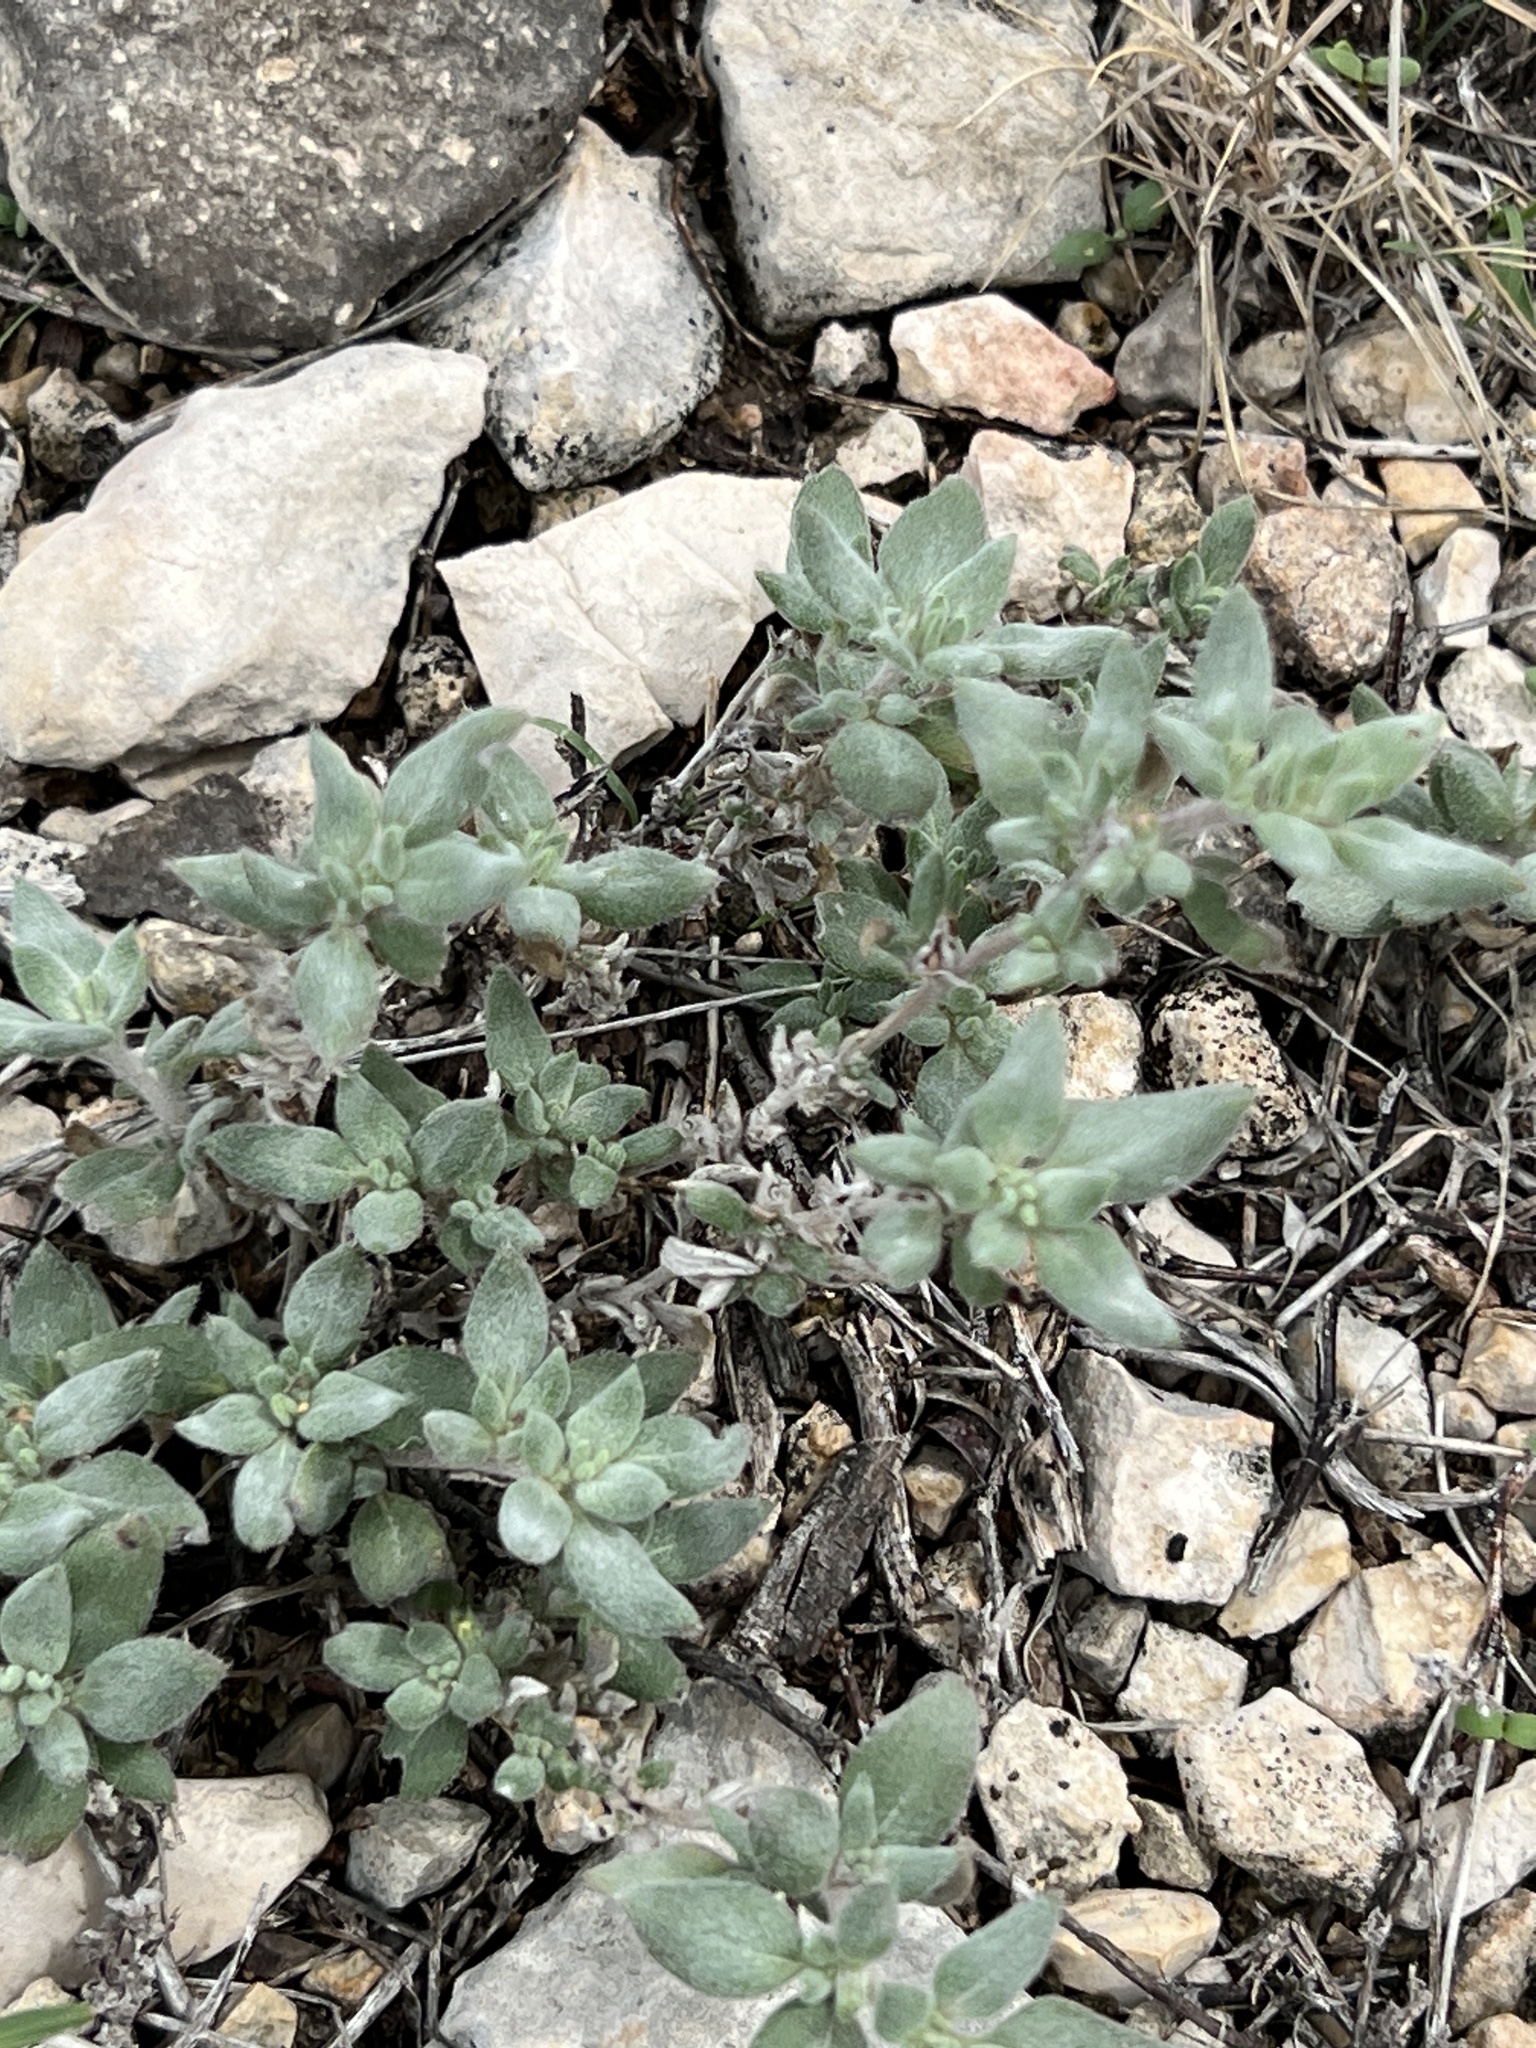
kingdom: Plantae
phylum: Tracheophyta
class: Magnoliopsida
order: Boraginales
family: Ehretiaceae
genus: Tiquilia
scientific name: Tiquilia canescens
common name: Hairy tiquilia
